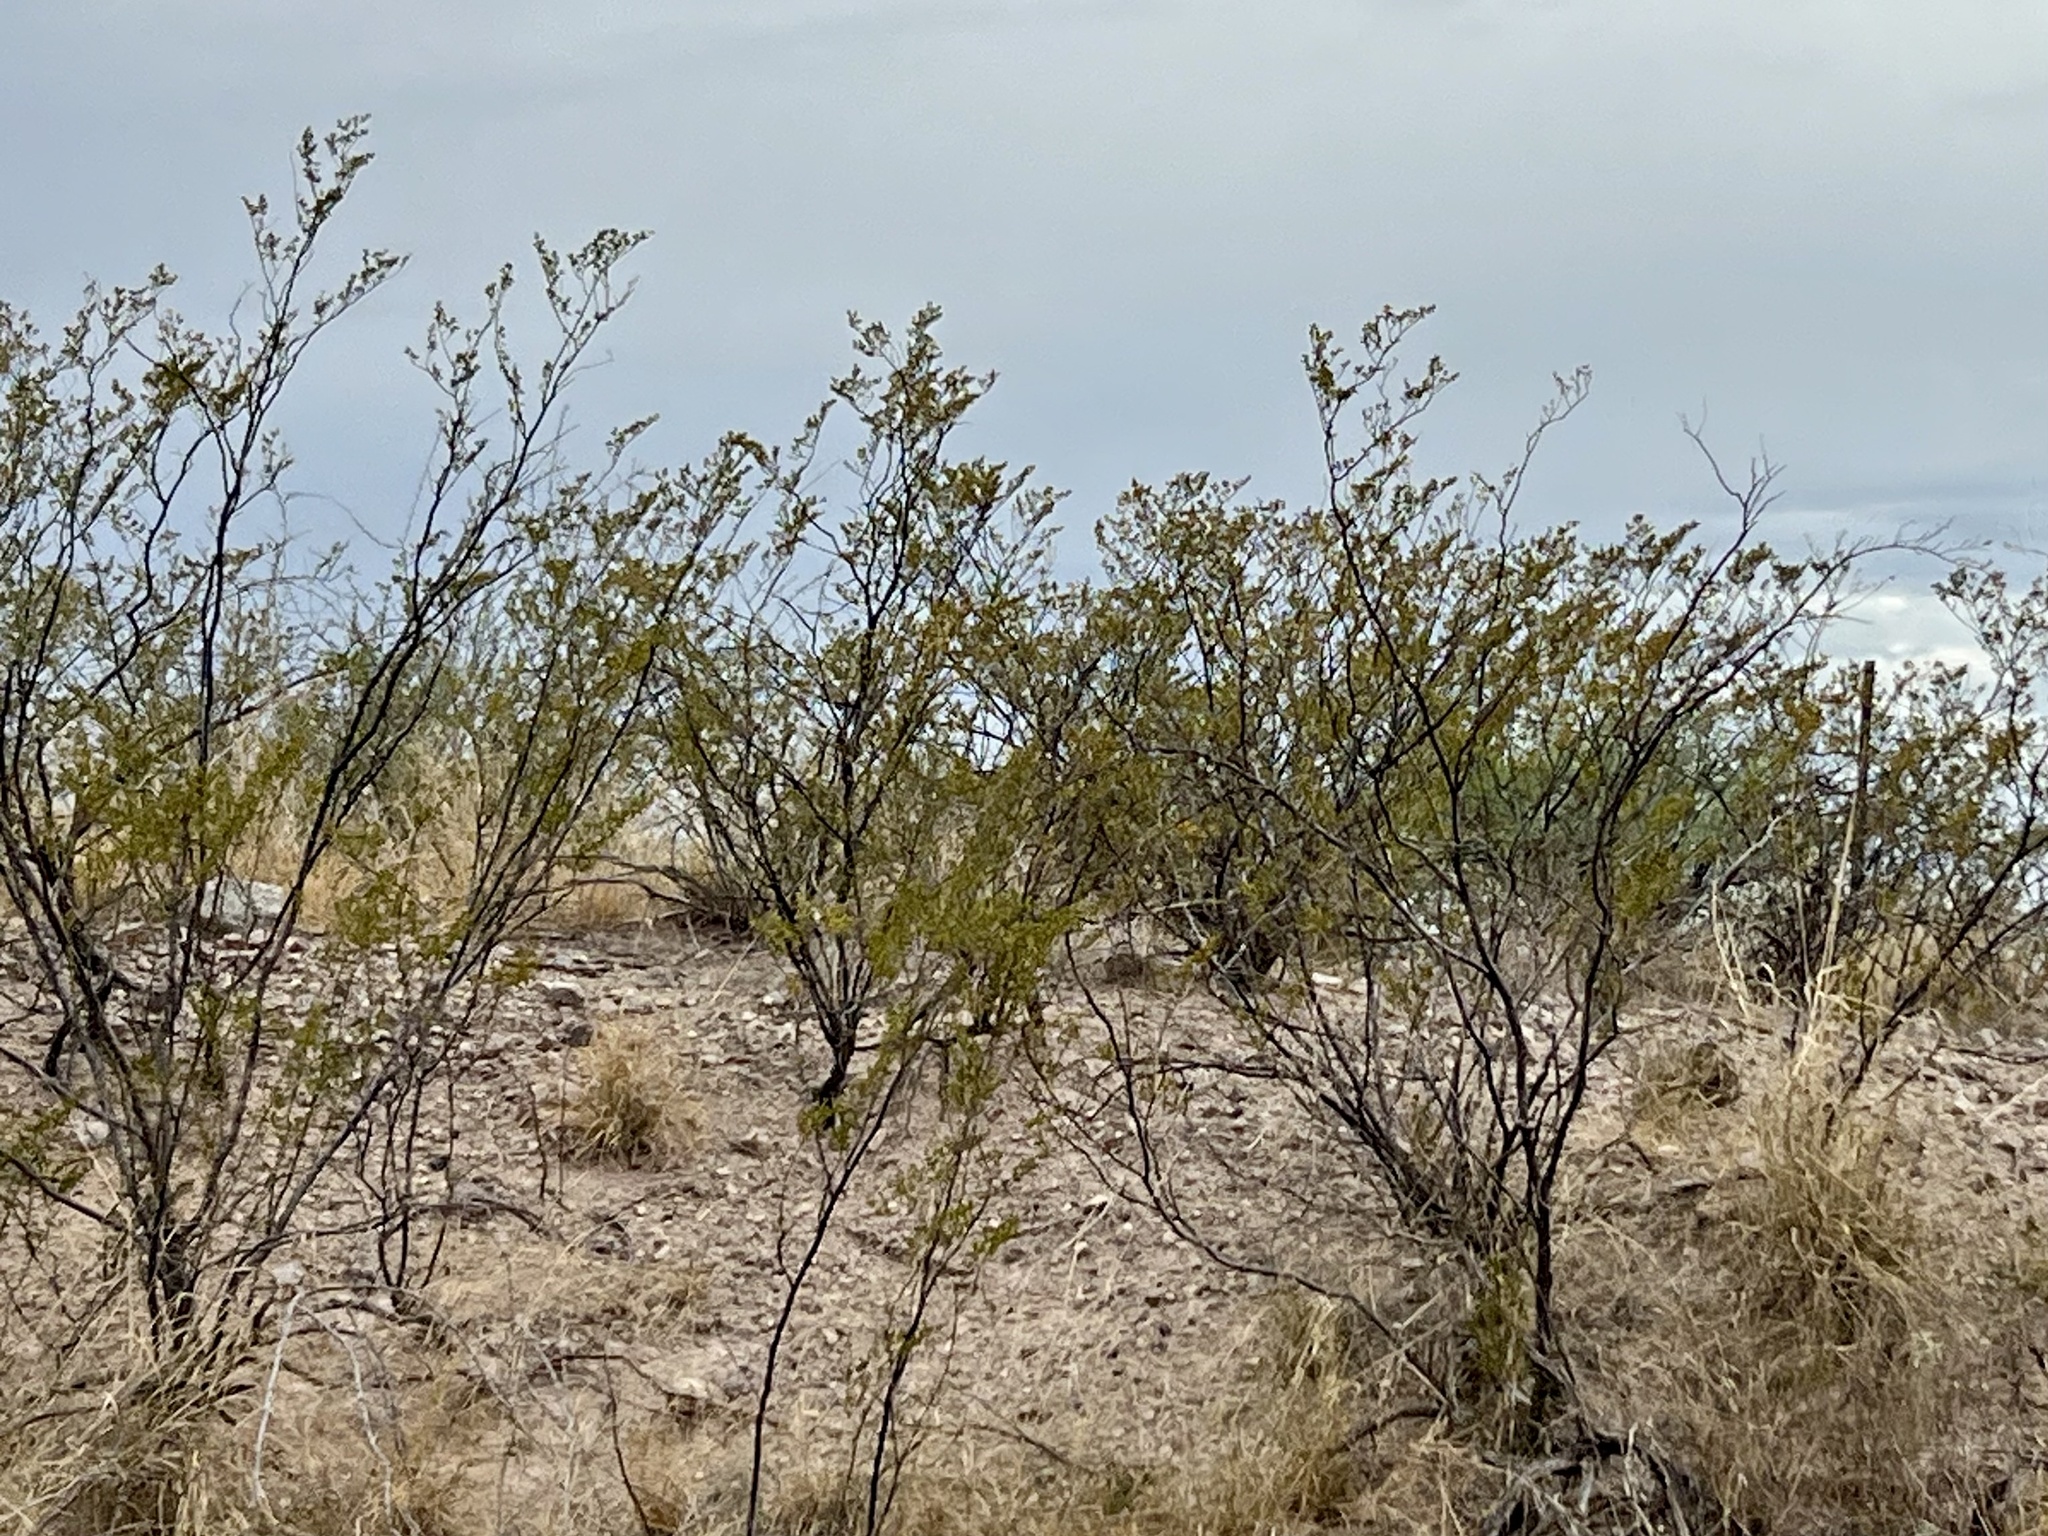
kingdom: Plantae
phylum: Tracheophyta
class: Magnoliopsida
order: Zygophyllales
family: Zygophyllaceae
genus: Larrea
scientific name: Larrea tridentata
